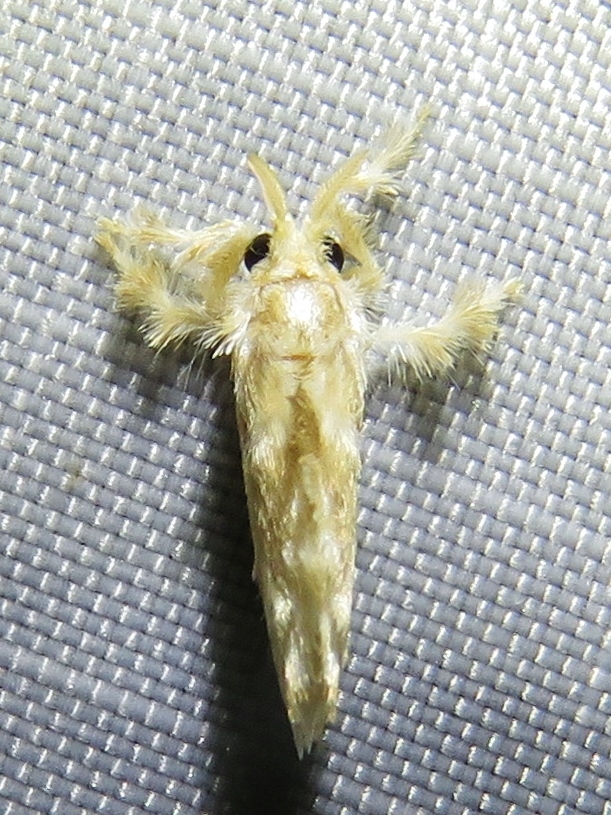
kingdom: Animalia
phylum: Arthropoda
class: Insecta
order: Lepidoptera
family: Dalceridae
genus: Dalcerides
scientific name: Dalcerides sofia
